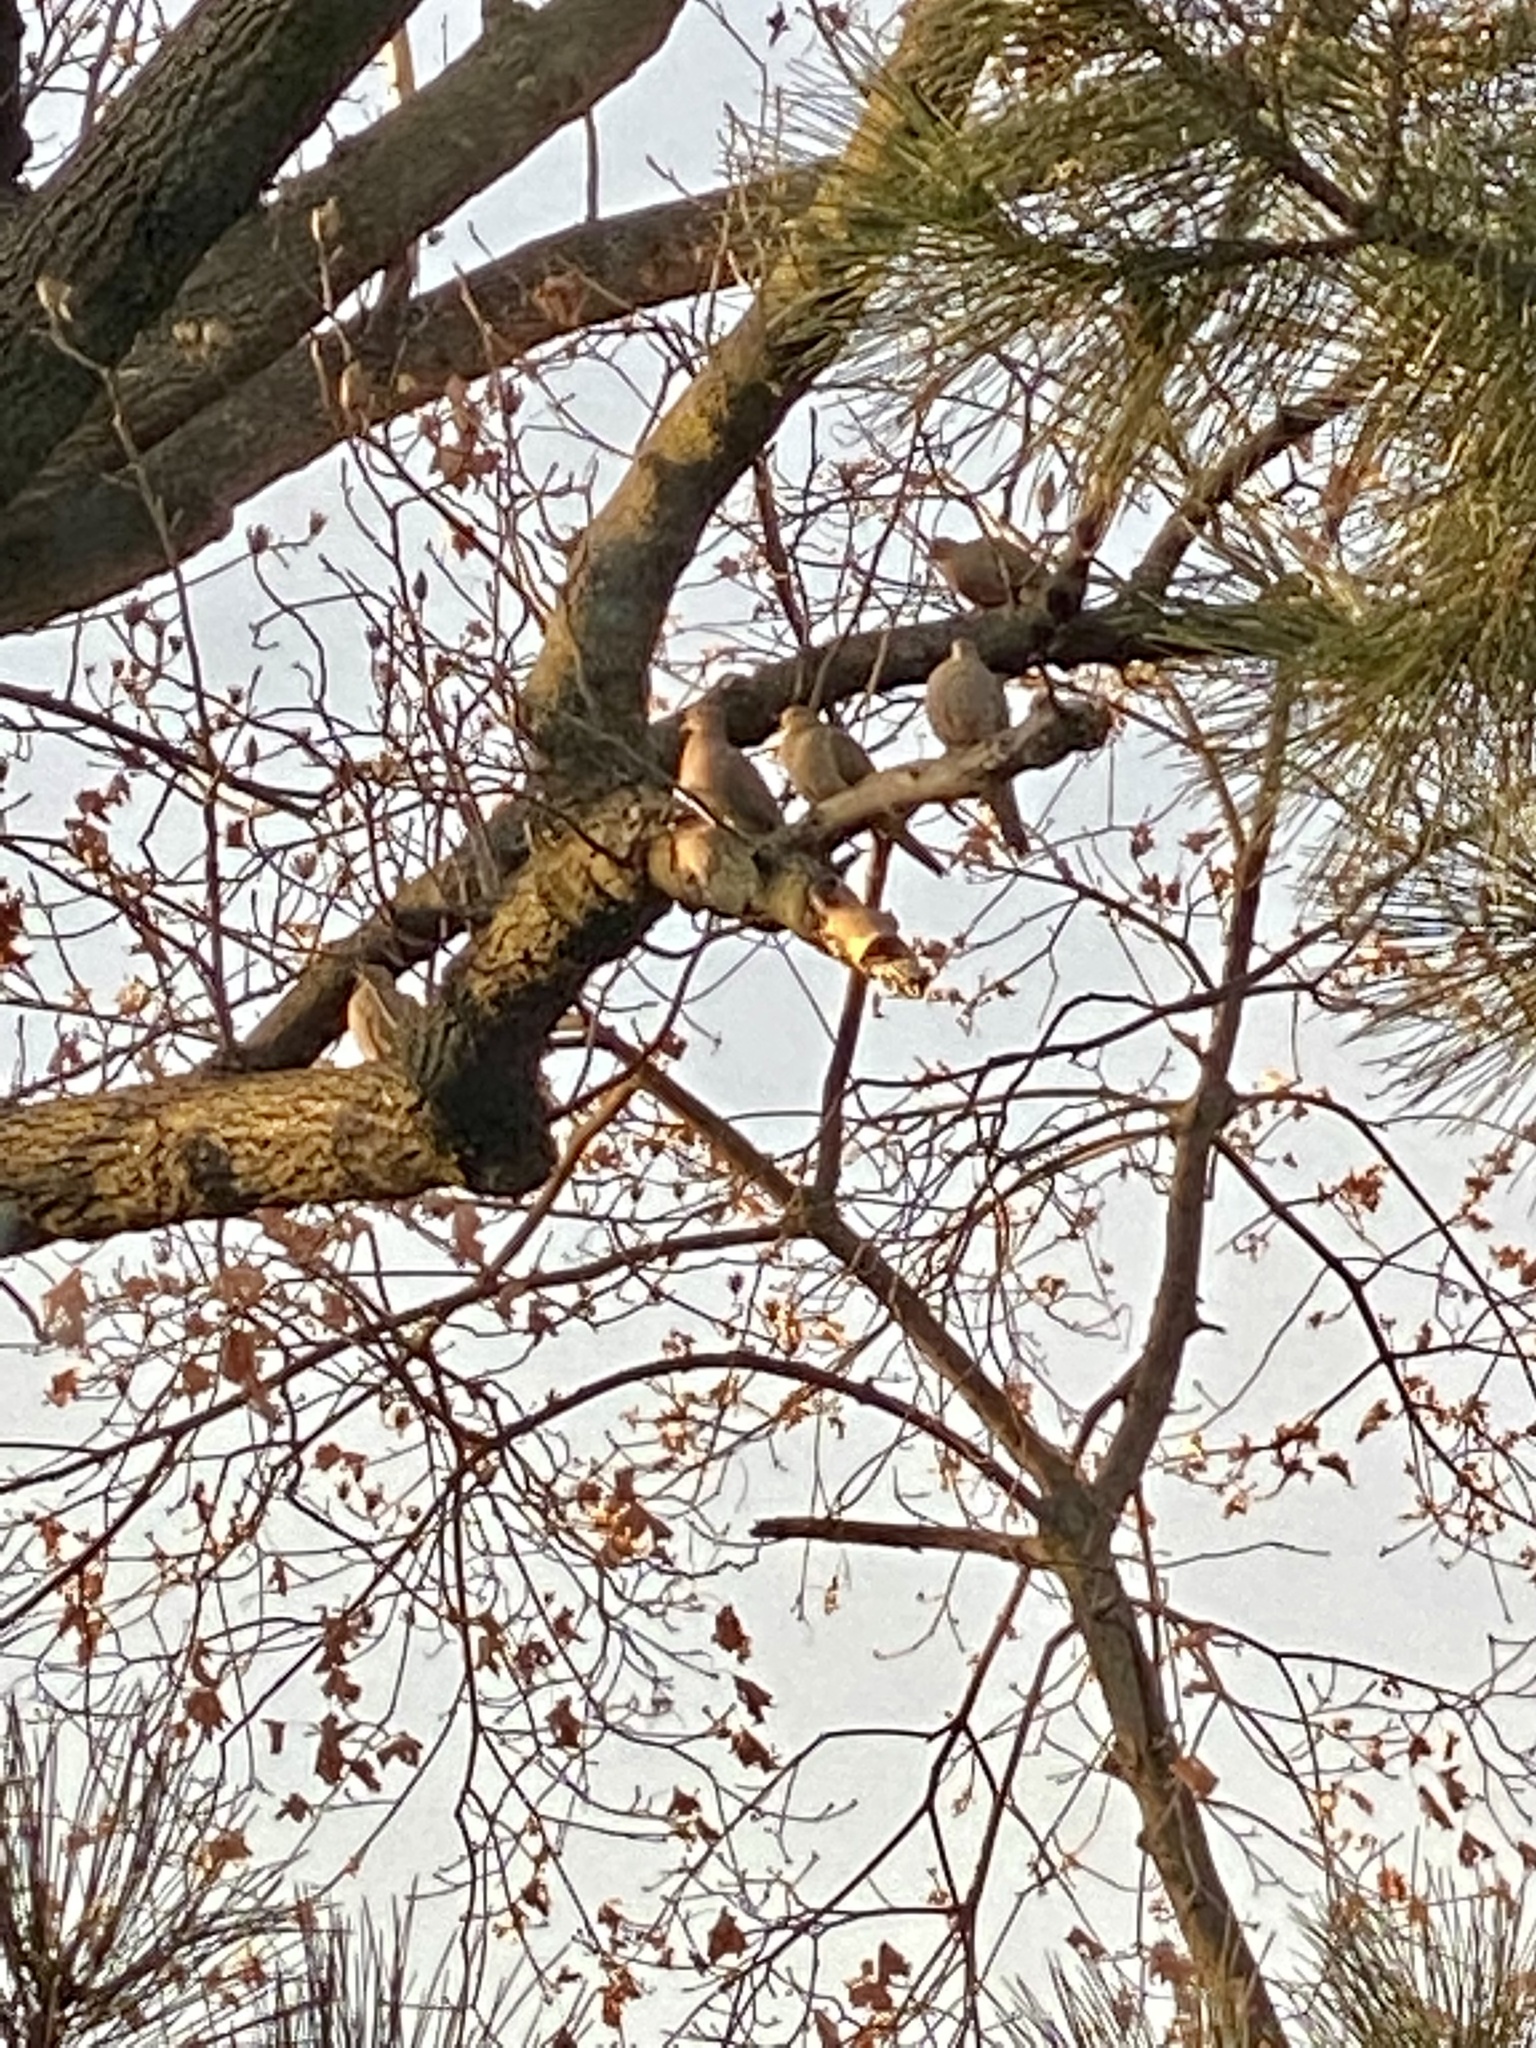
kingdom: Animalia
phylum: Chordata
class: Aves
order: Columbiformes
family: Columbidae
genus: Zenaida
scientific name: Zenaida macroura
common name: Mourning dove
